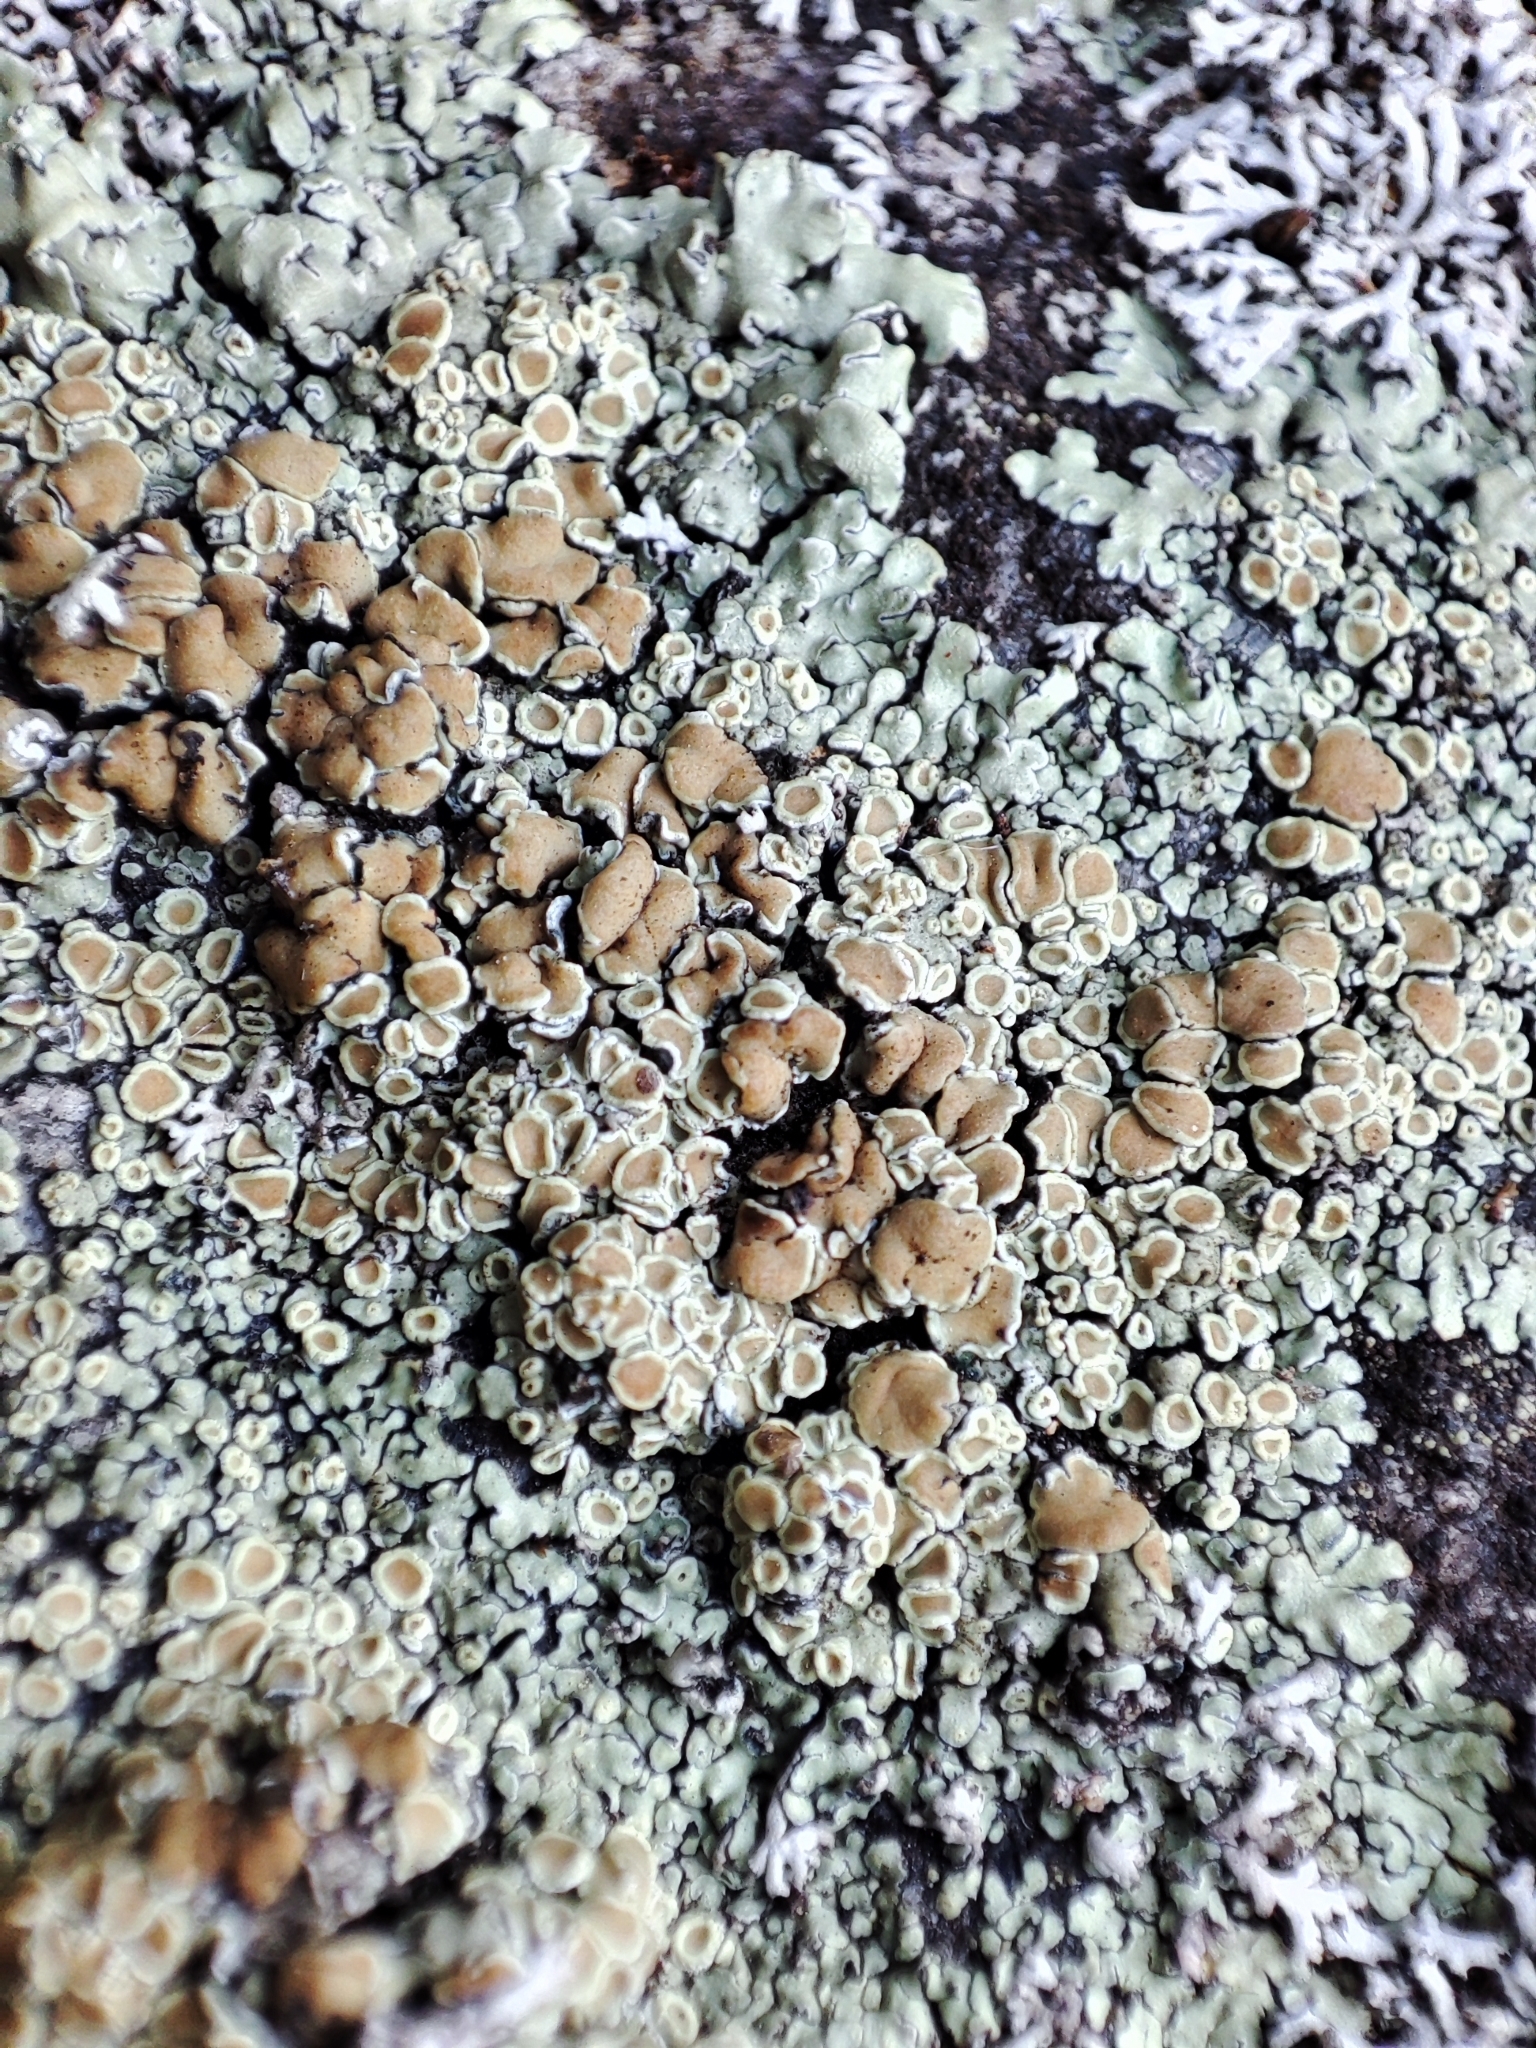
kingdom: Fungi
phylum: Ascomycota
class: Lecanoromycetes
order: Lecanorales
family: Lecanoraceae
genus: Protoparmeliopsis
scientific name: Protoparmeliopsis muralis
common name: Stonewall rim lichen
